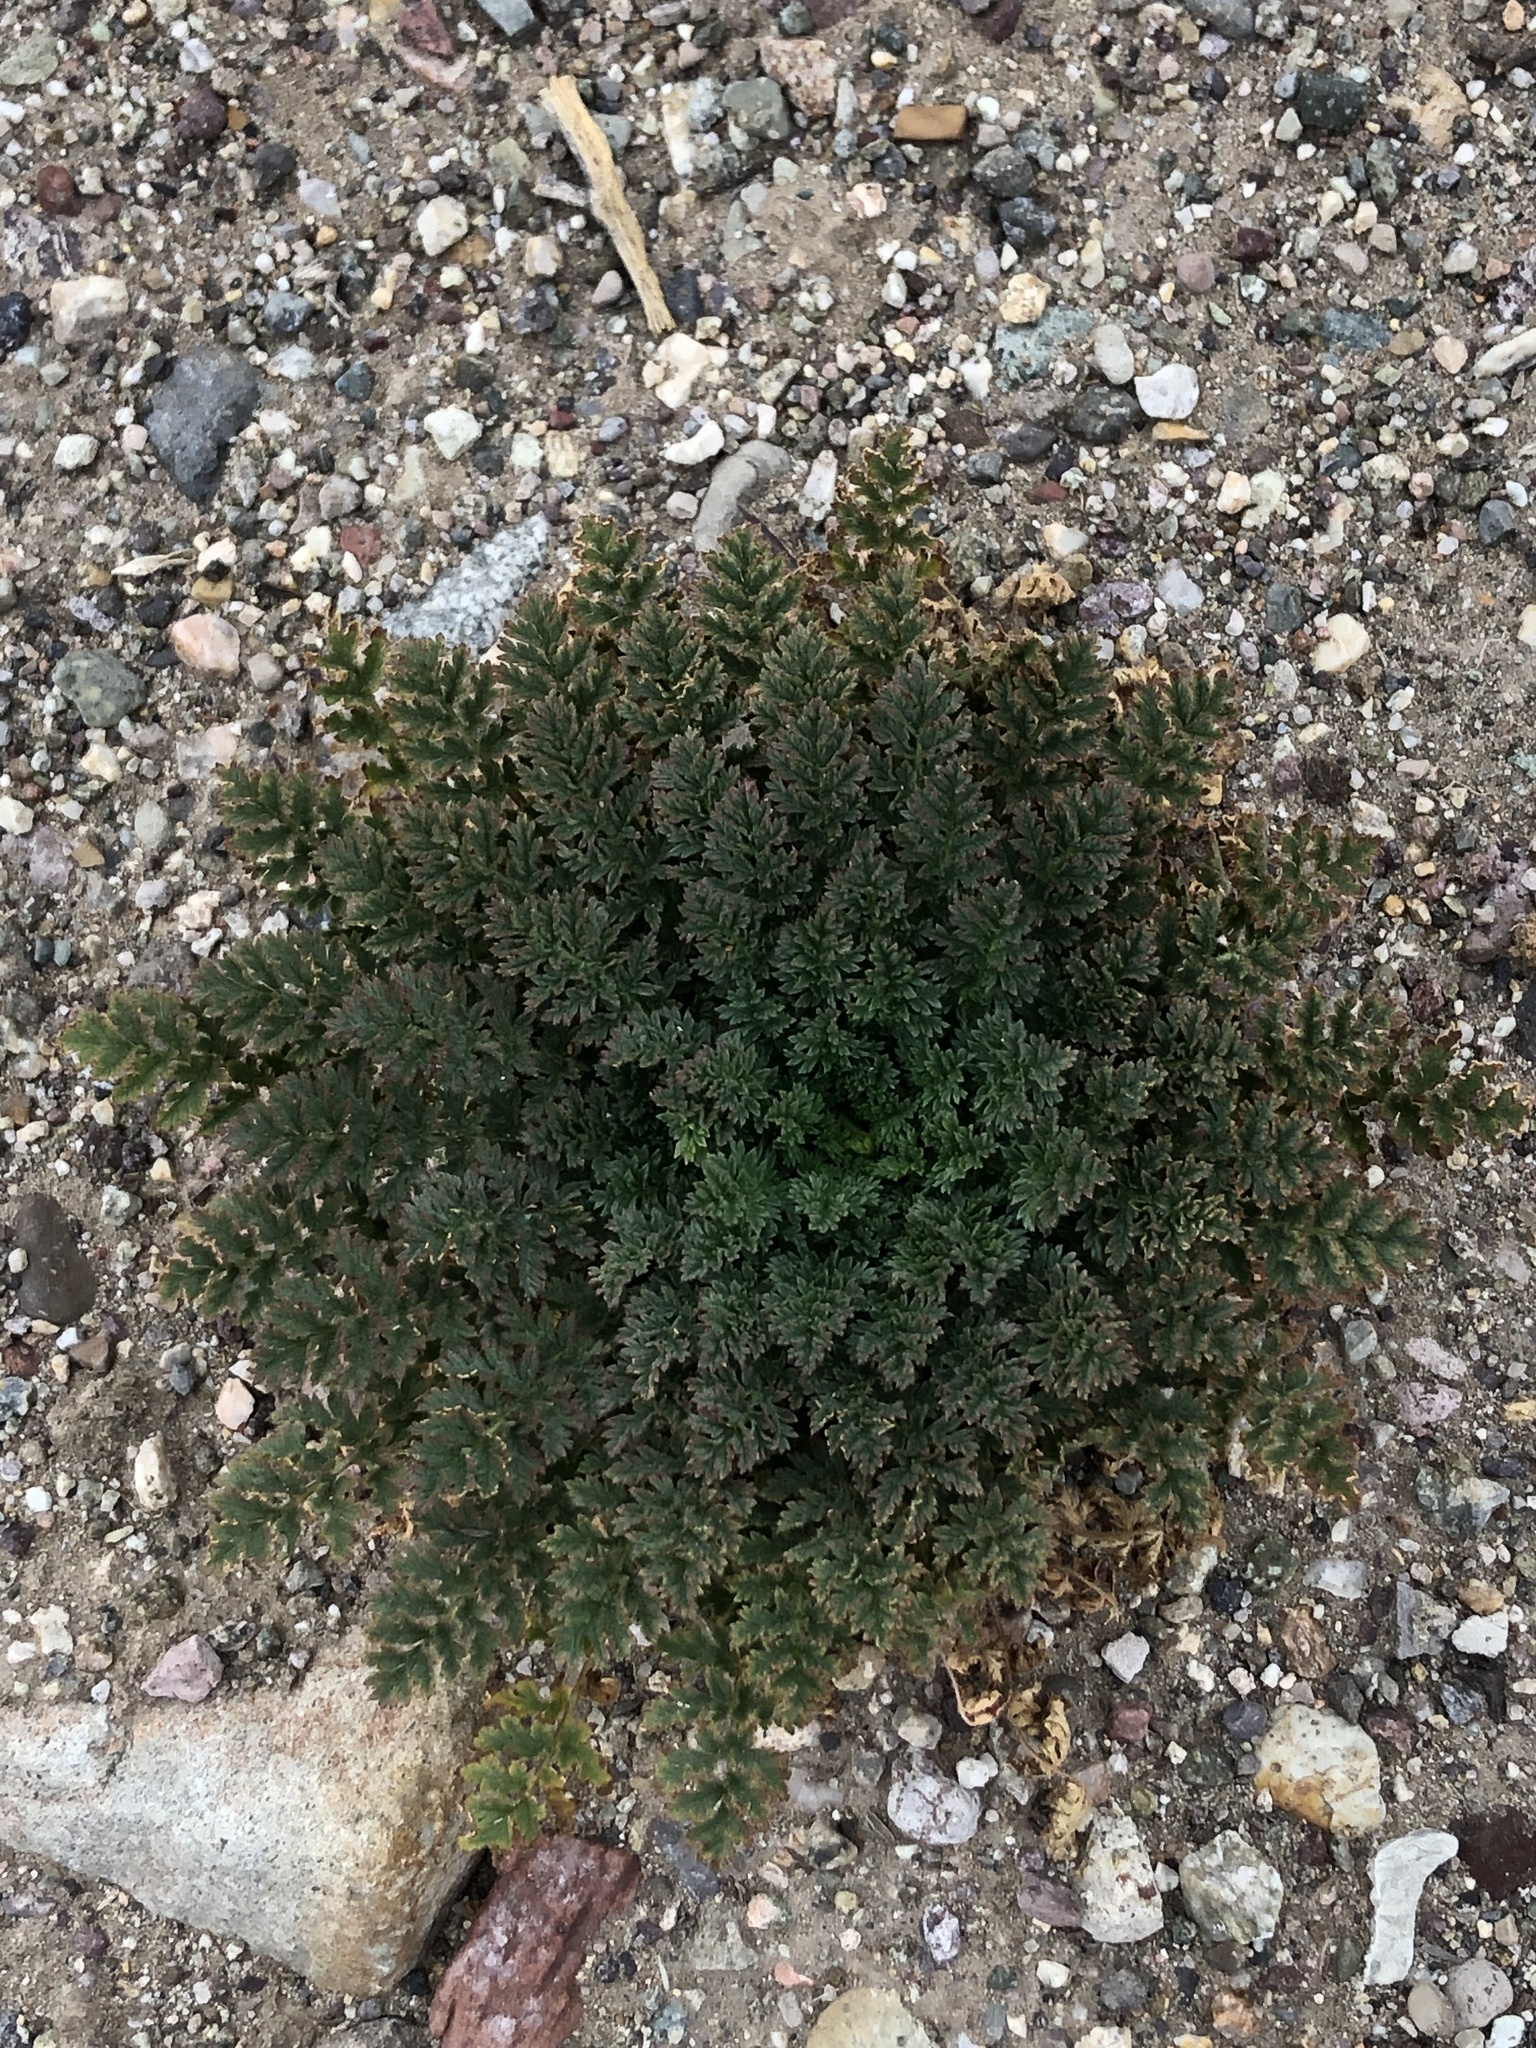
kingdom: Plantae
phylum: Tracheophyta
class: Magnoliopsida
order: Geraniales
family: Geraniaceae
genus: Erodium
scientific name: Erodium cicutarium
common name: Common stork's-bill
